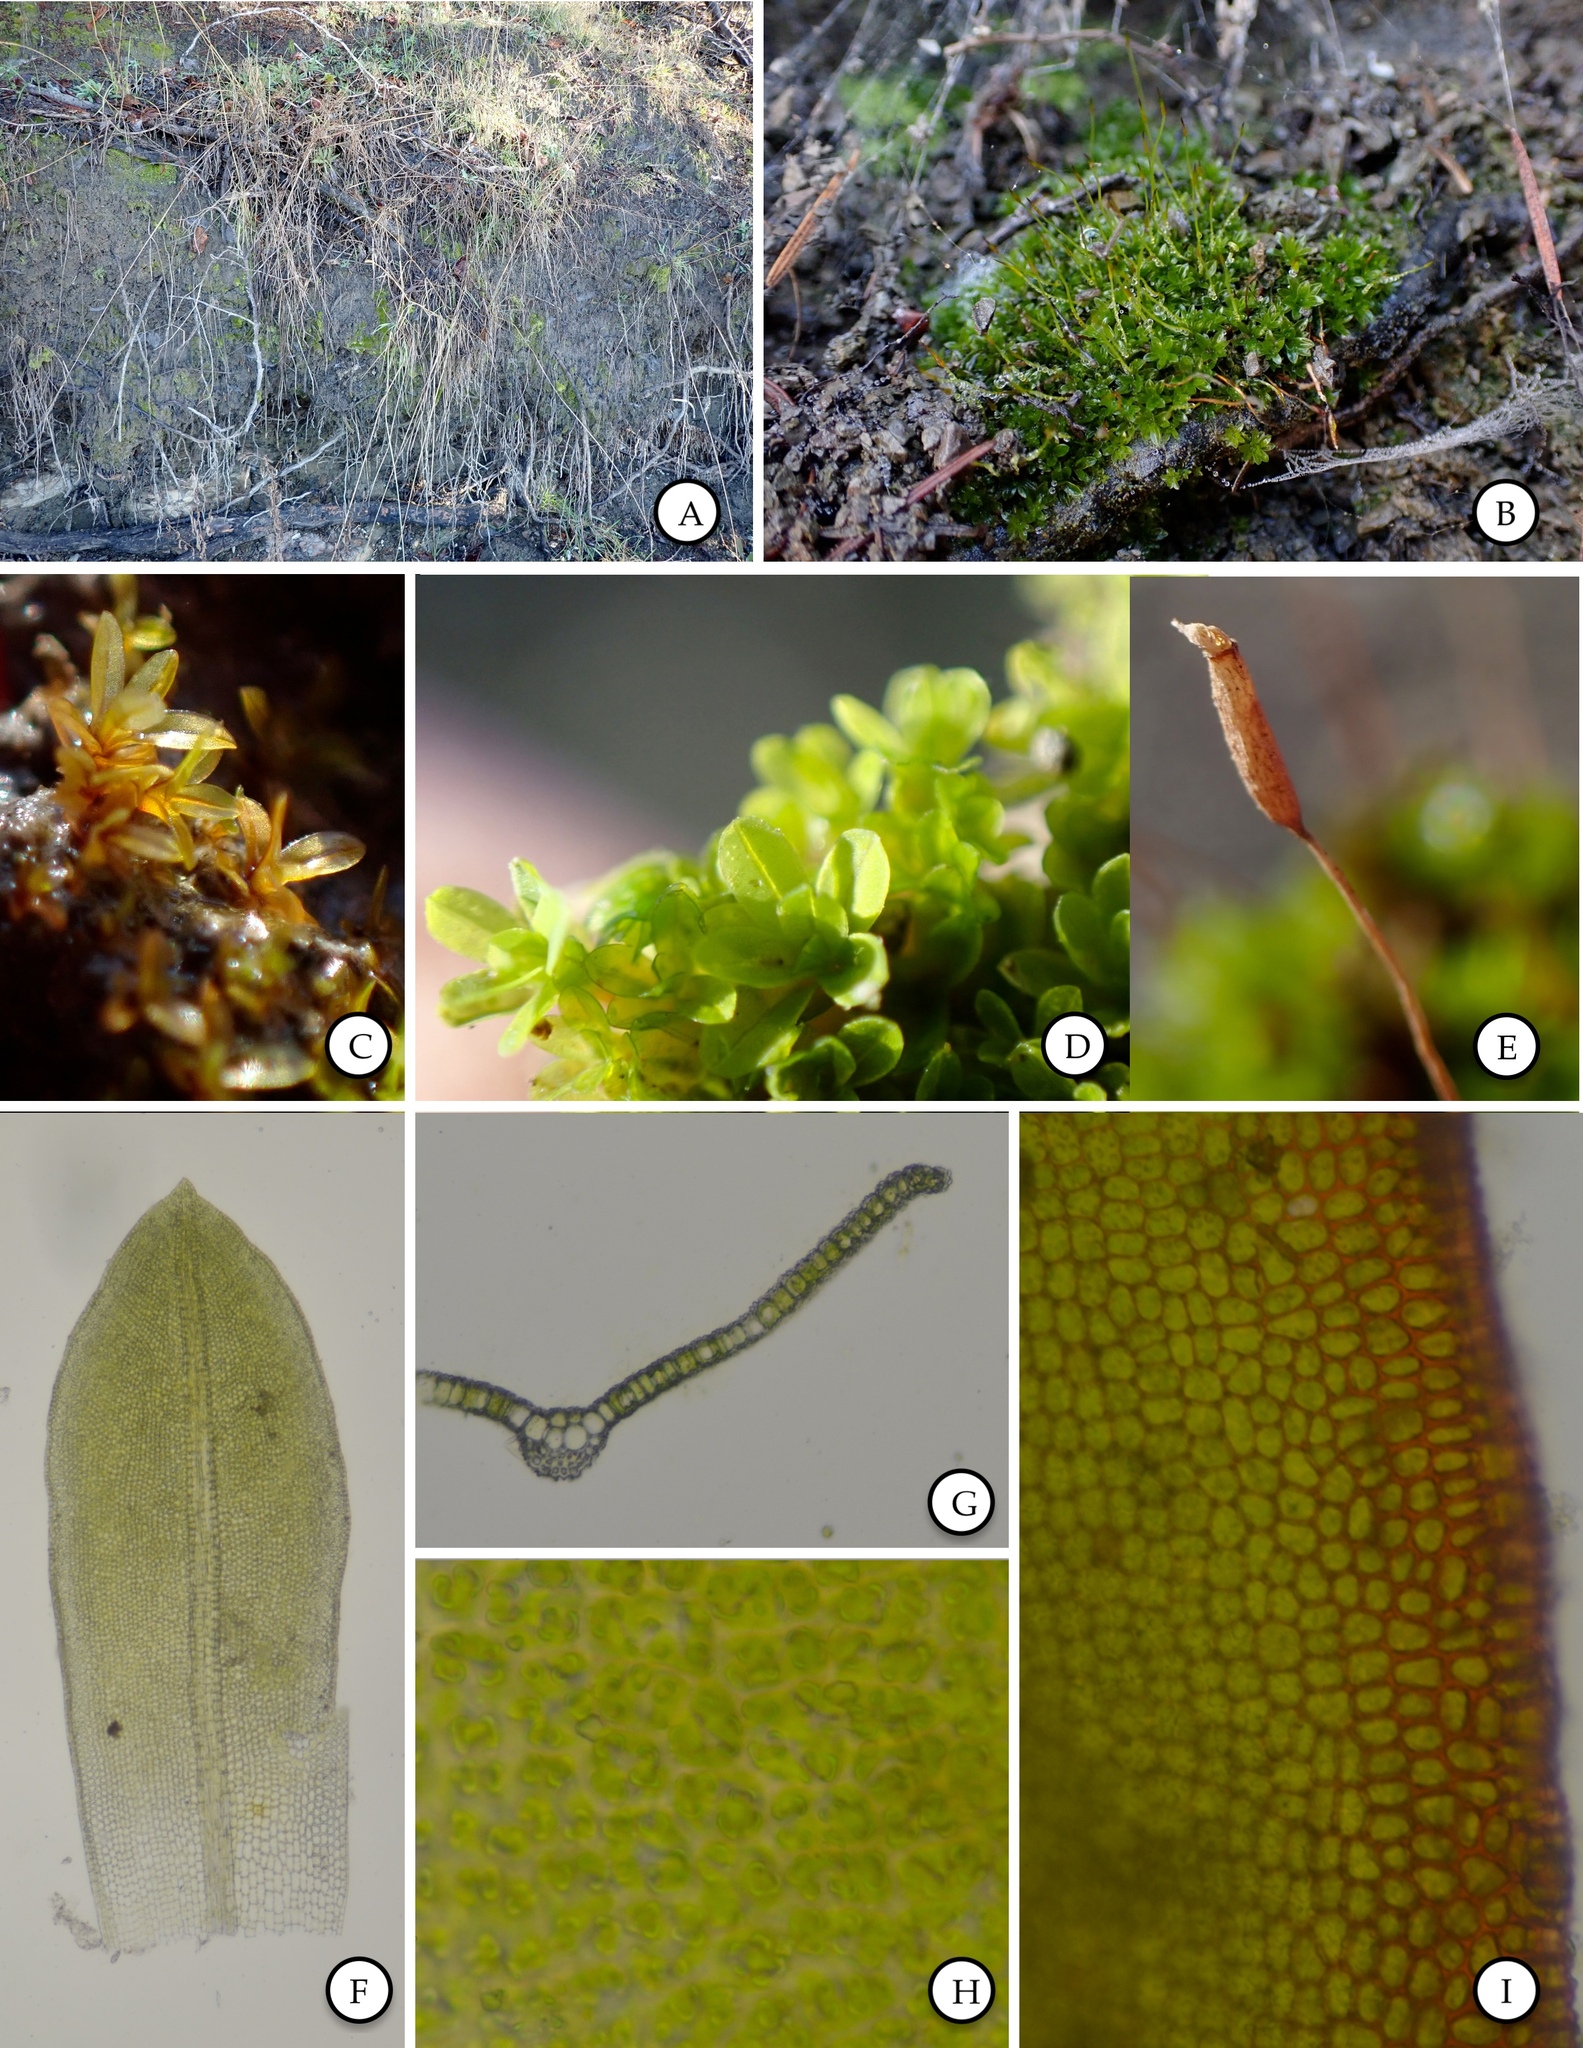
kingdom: Plantae
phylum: Bryophyta
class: Bryopsida
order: Pottiales
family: Pottiaceae
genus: Tortula
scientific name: Tortula bolanderi
